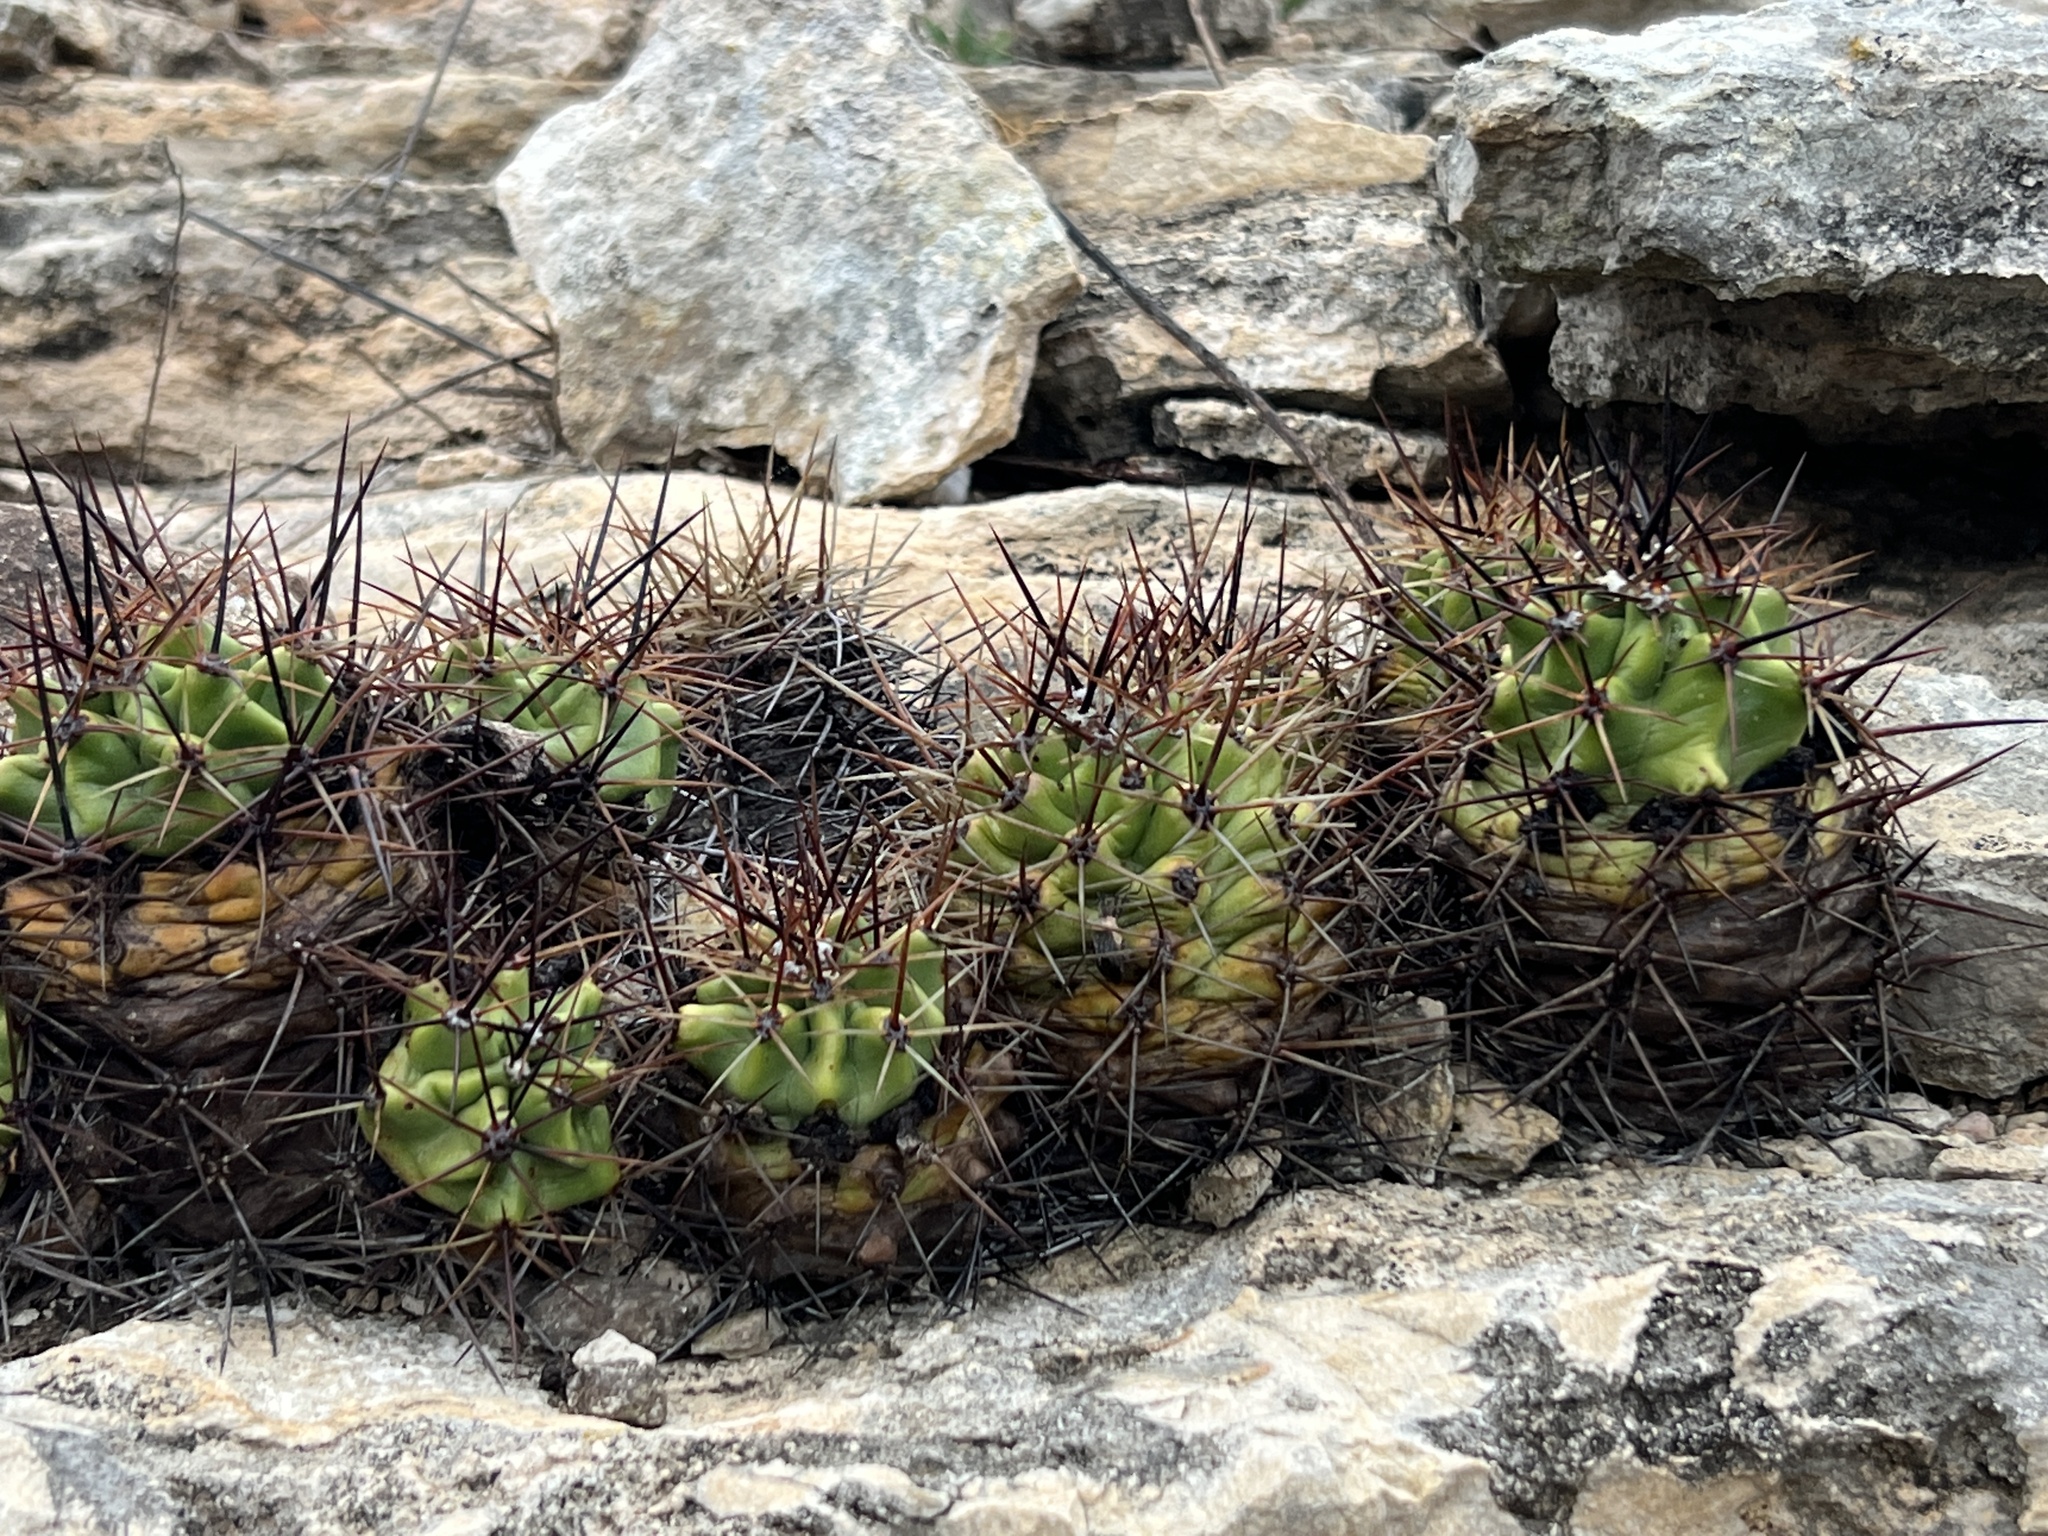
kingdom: Plantae
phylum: Tracheophyta
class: Magnoliopsida
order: Caryophyllales
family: Cactaceae
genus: Echinocereus
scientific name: Echinocereus coccineus
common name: Scarlet hedgehog cactus
